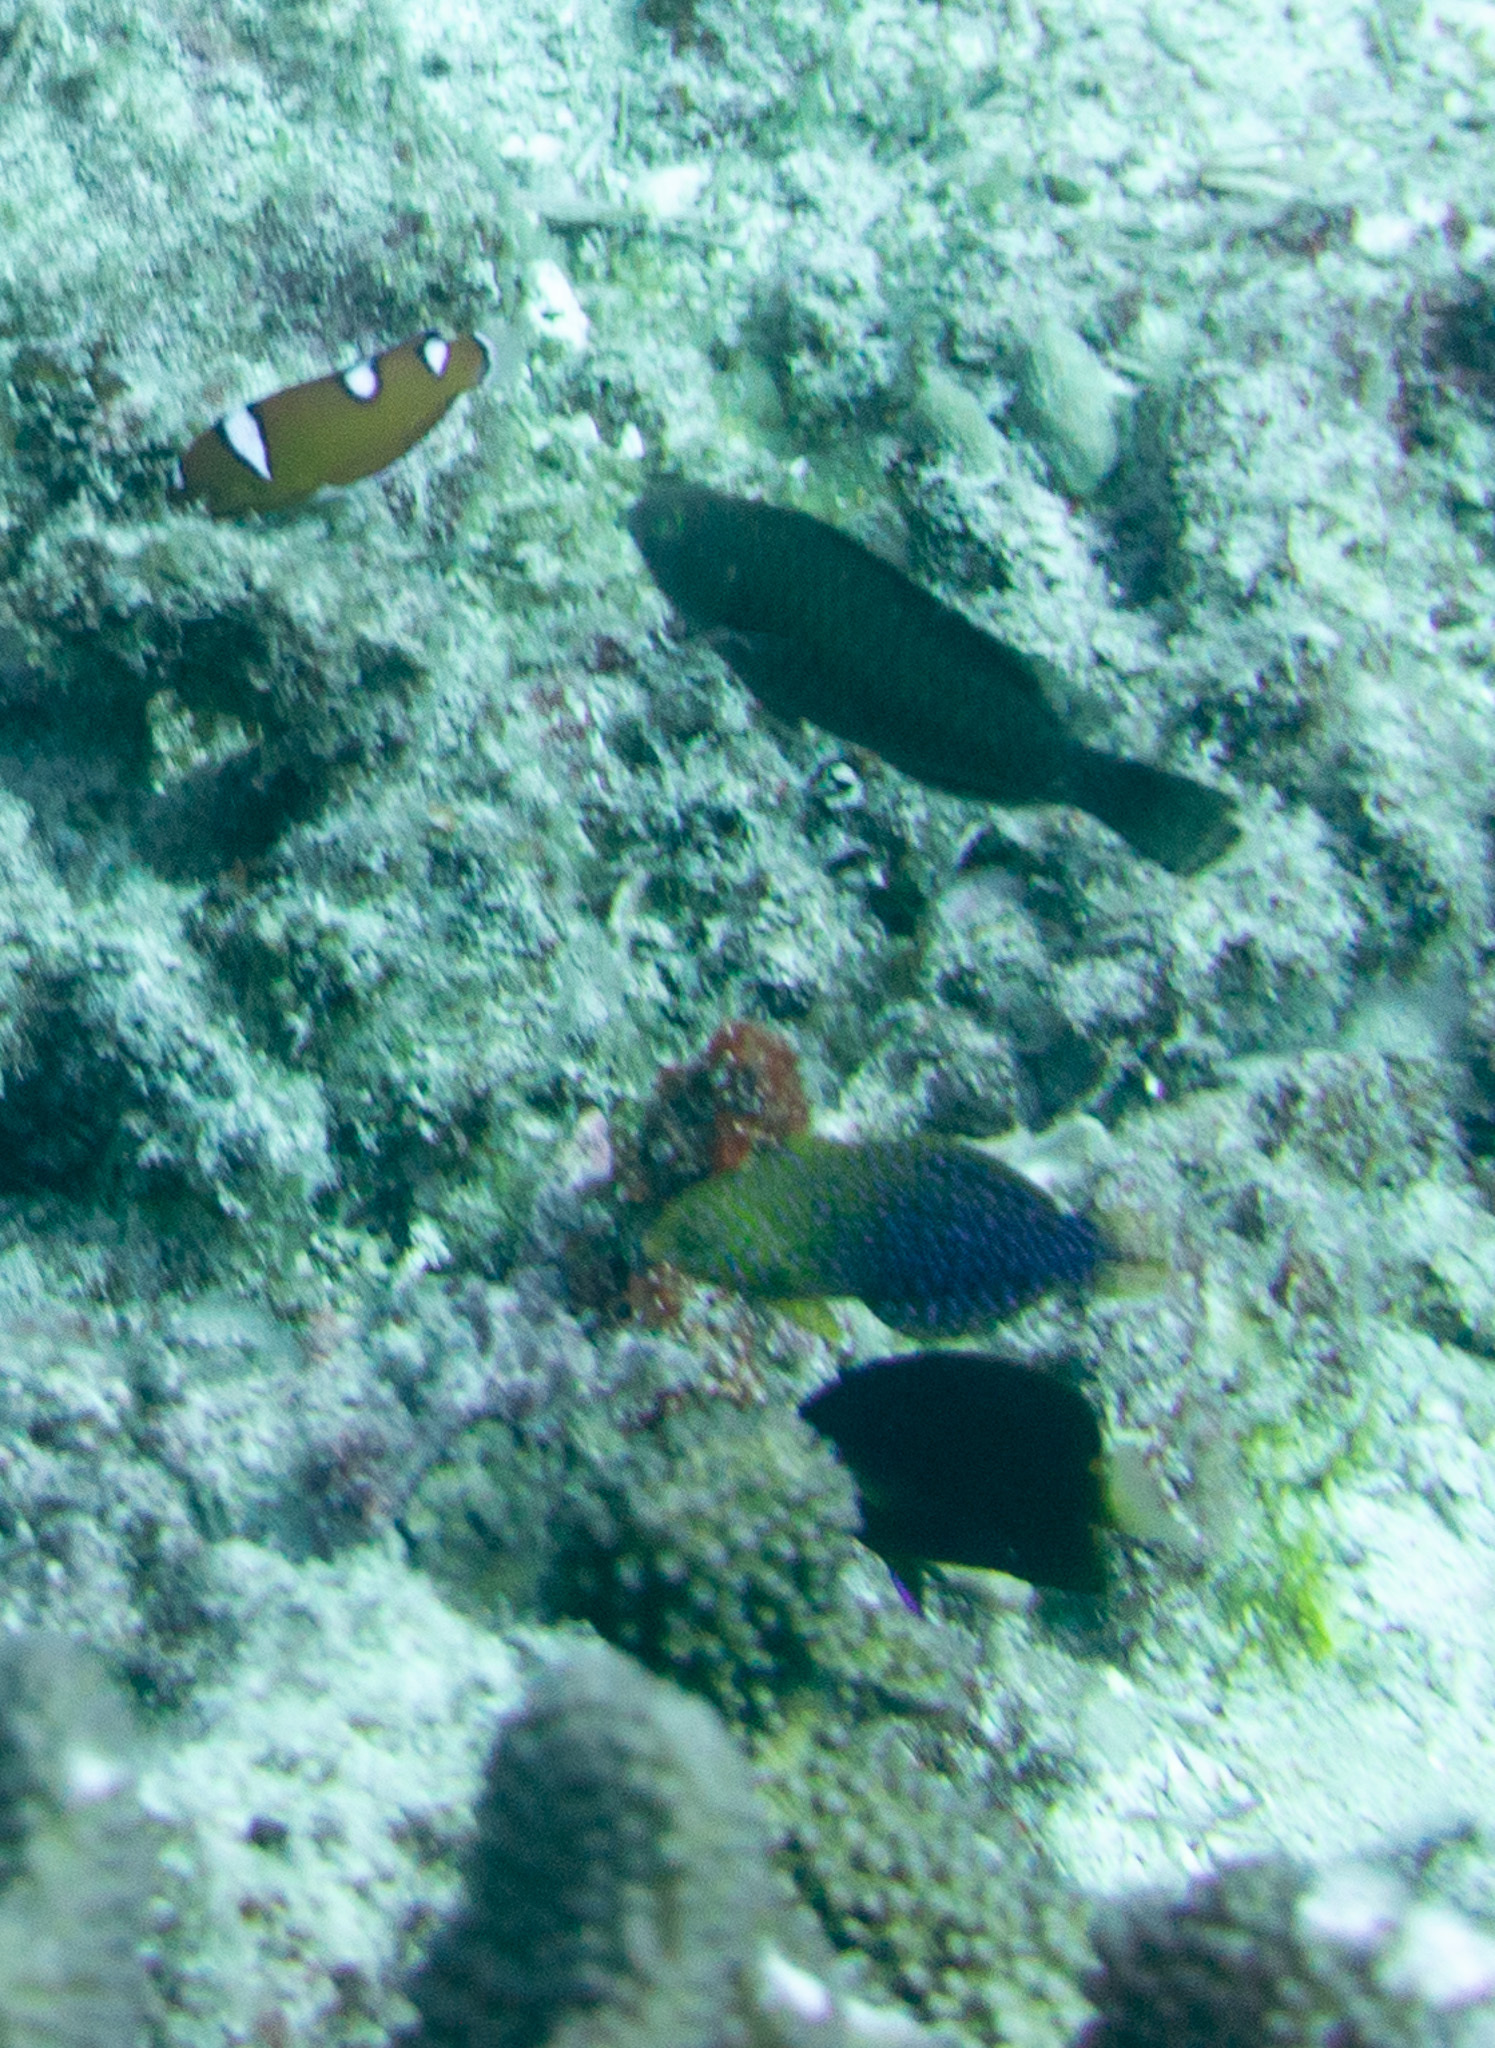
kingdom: Animalia
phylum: Chordata
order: Perciformes
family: Labridae
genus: Macropharyngodon
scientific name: Macropharyngodon geoffroy
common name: Shortnose wrasse
